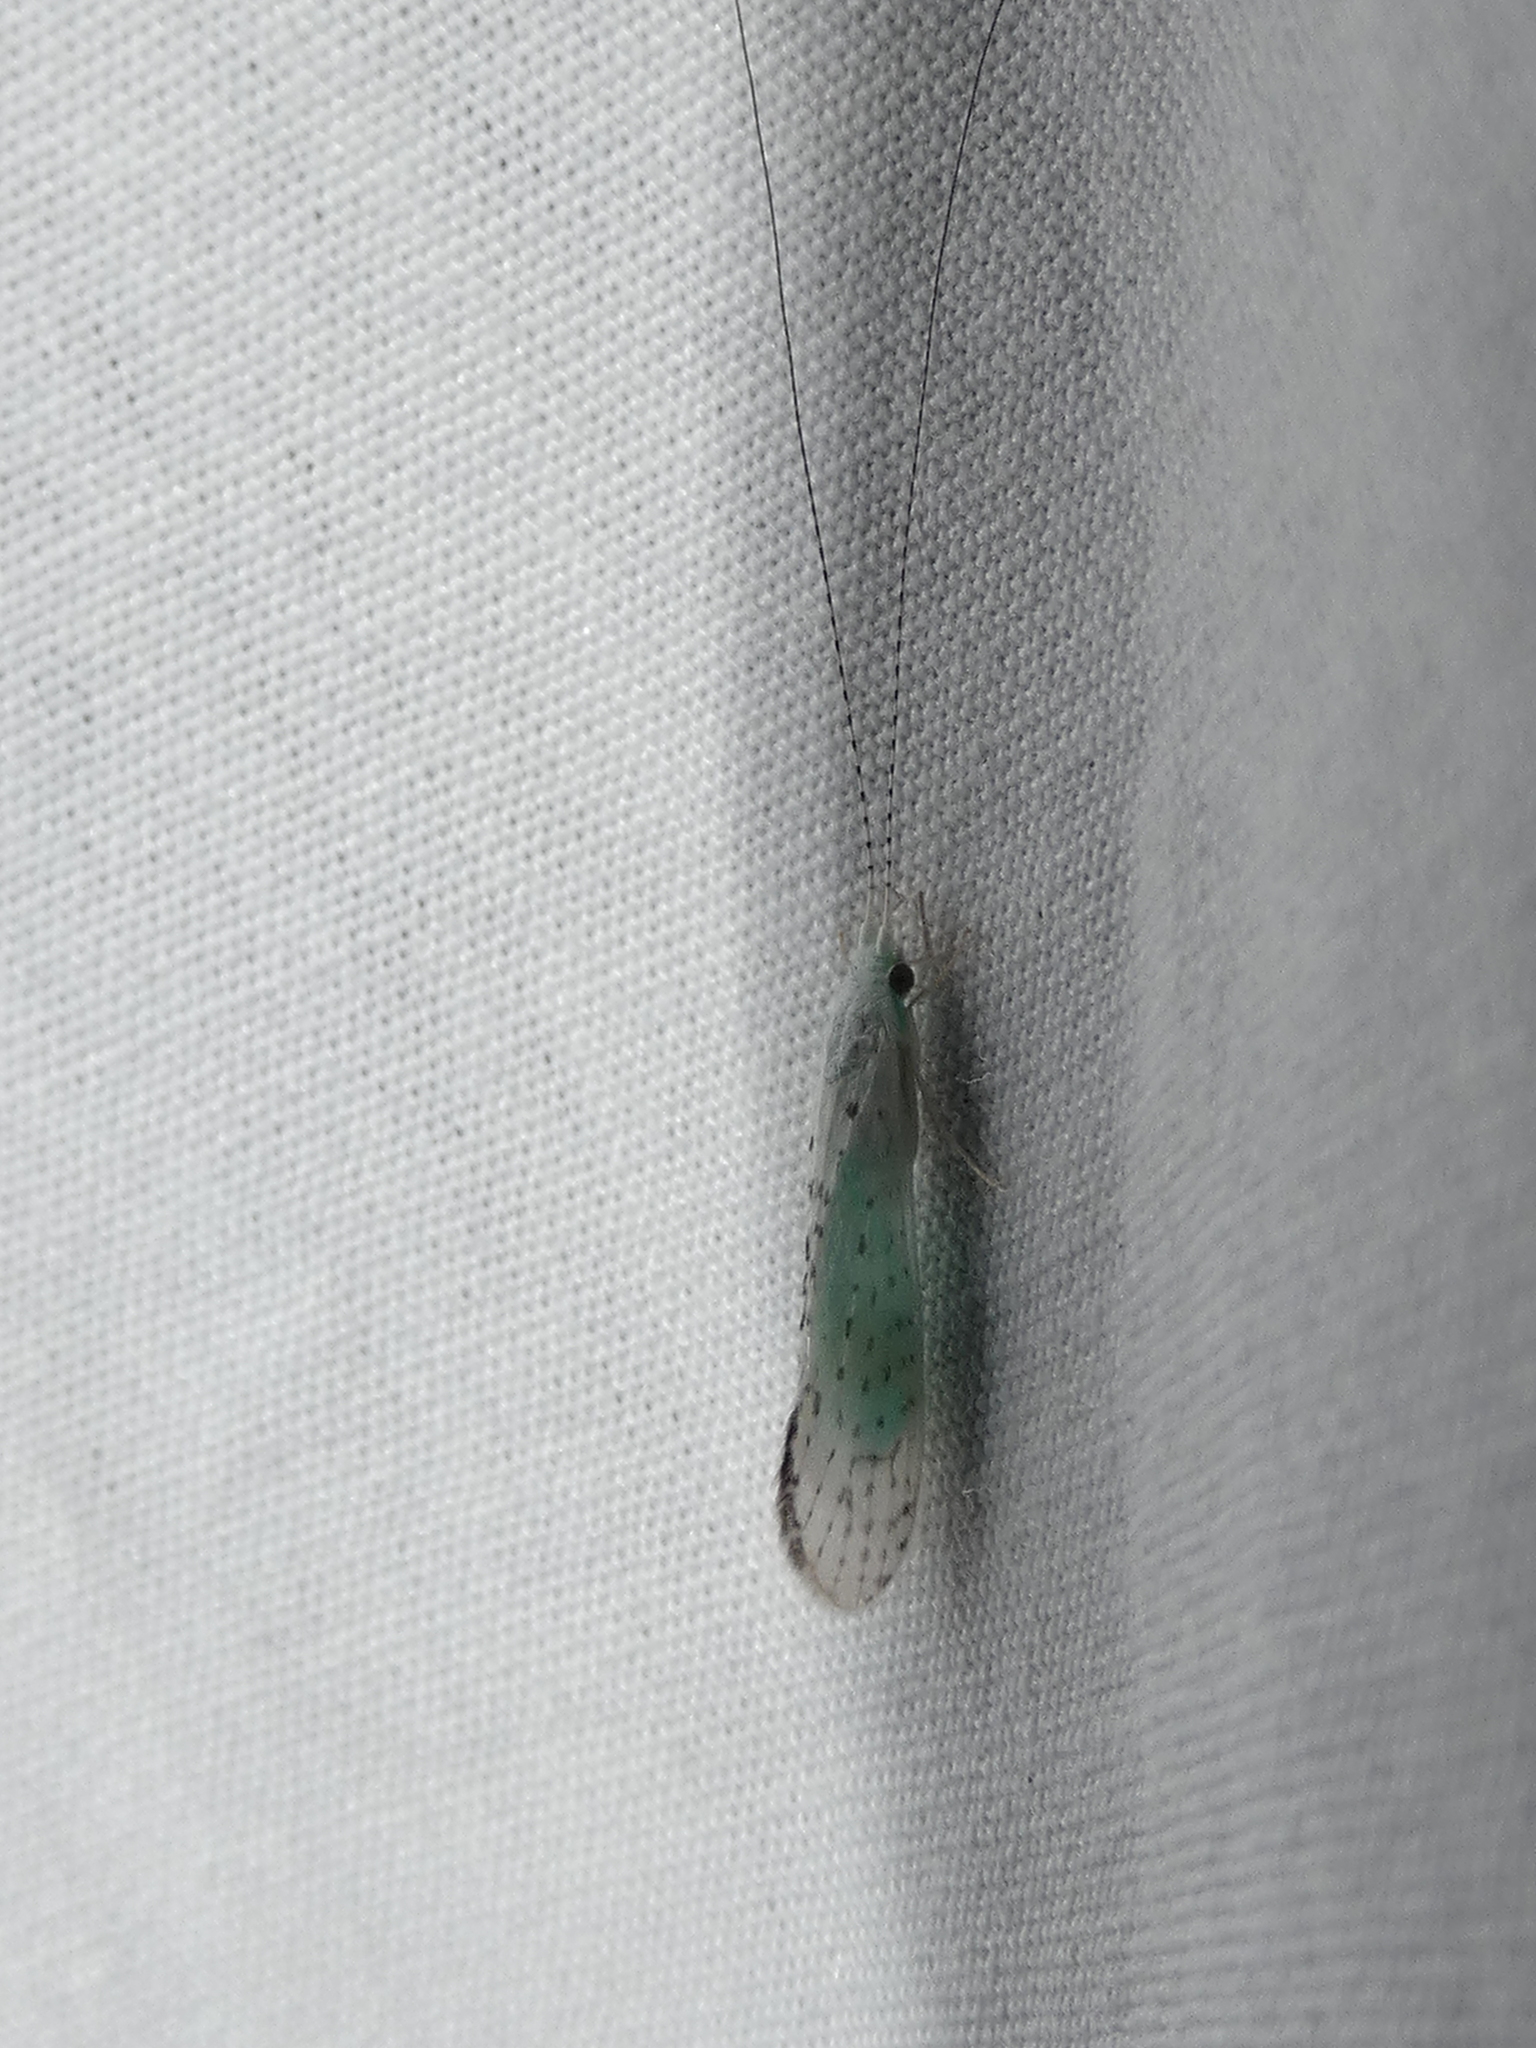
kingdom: Animalia
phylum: Arthropoda
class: Insecta
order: Trichoptera
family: Leptoceridae
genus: Nectopsyche
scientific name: Nectopsyche candida
